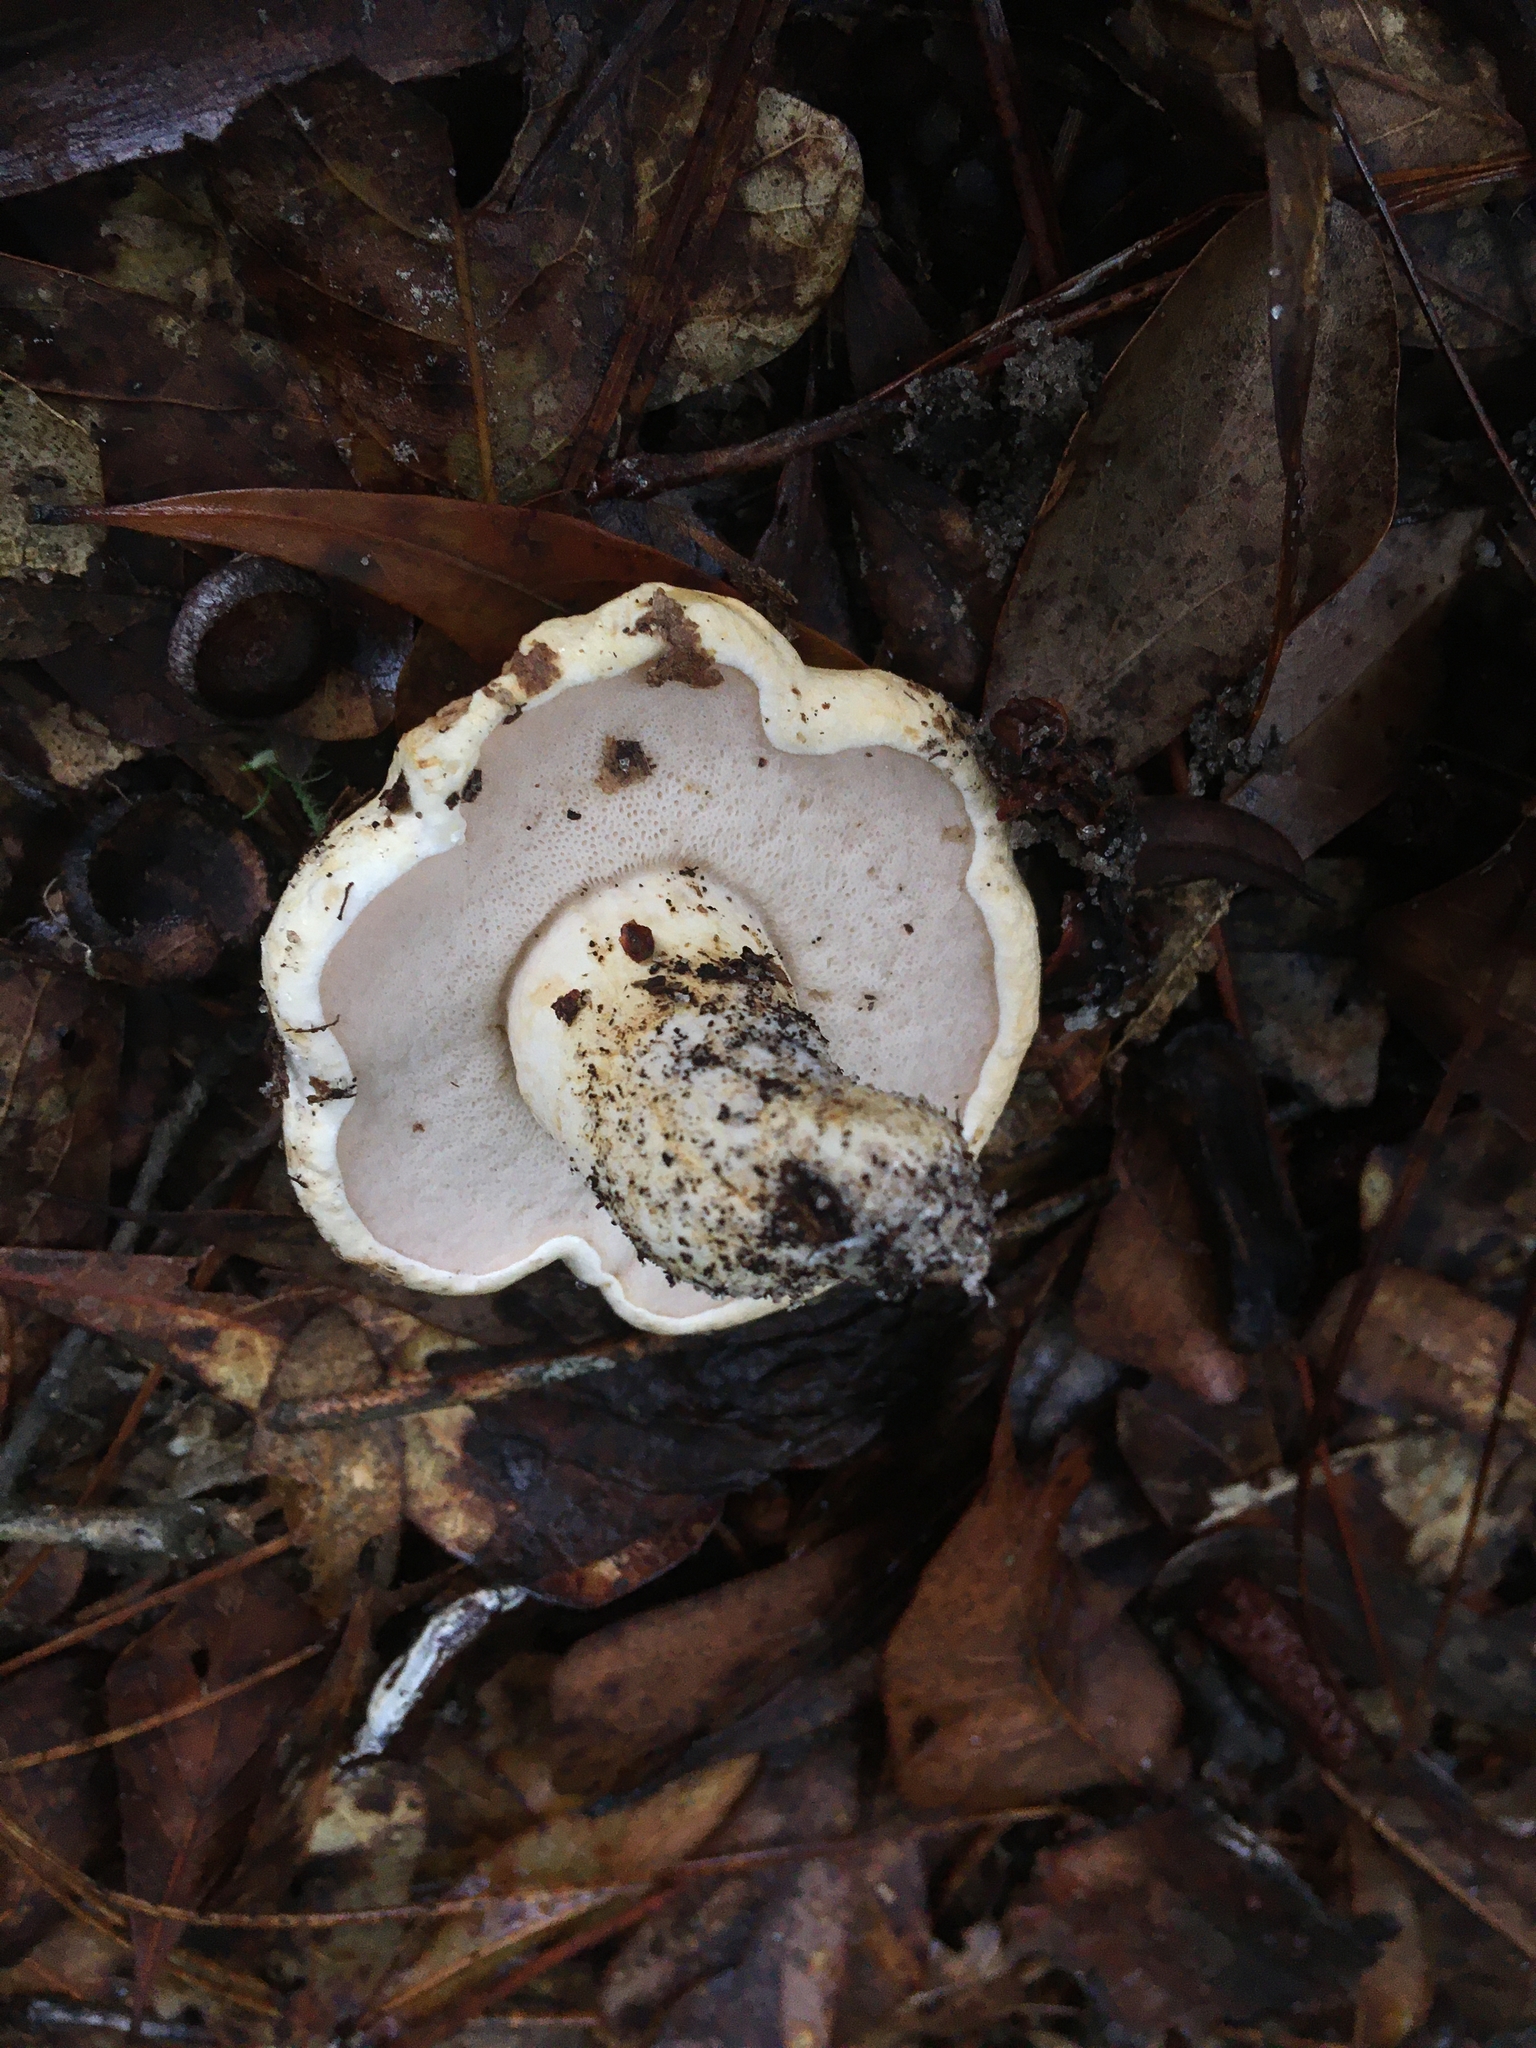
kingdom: Fungi
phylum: Basidiomycota
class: Agaricomycetes
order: Boletales
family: Boletaceae
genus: Tylopilus
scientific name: Tylopilus peralbidus
